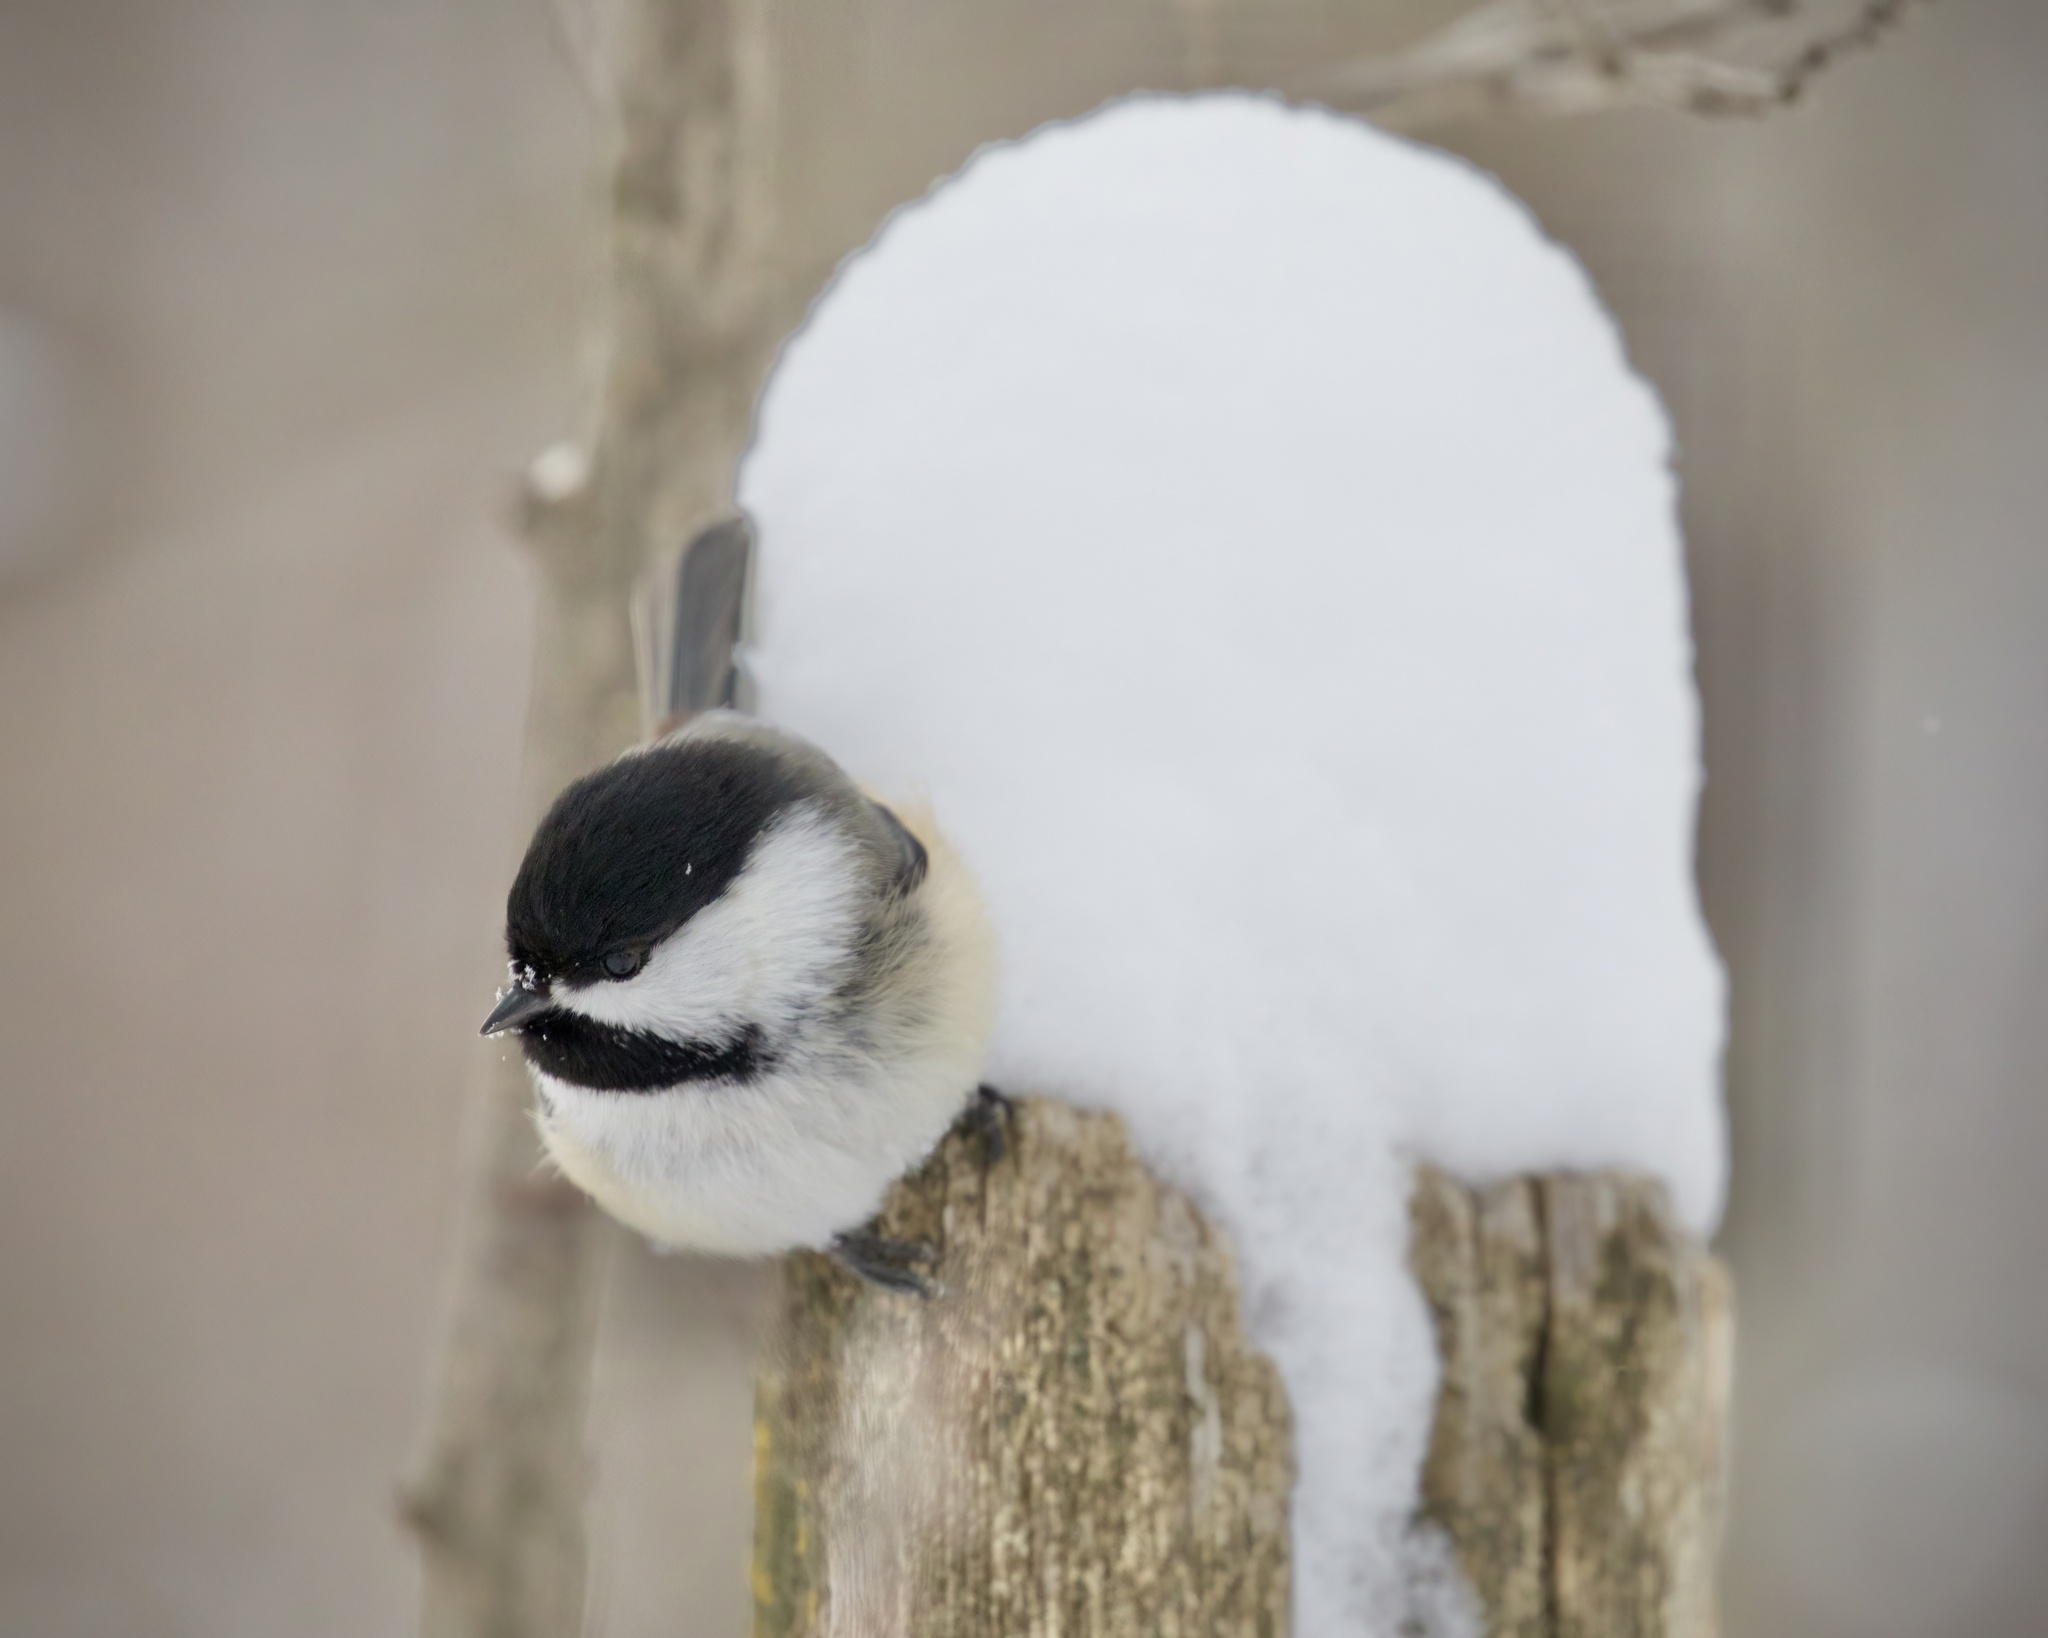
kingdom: Animalia
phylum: Chordata
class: Aves
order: Passeriformes
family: Paridae
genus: Poecile
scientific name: Poecile atricapillus
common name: Black-capped chickadee
